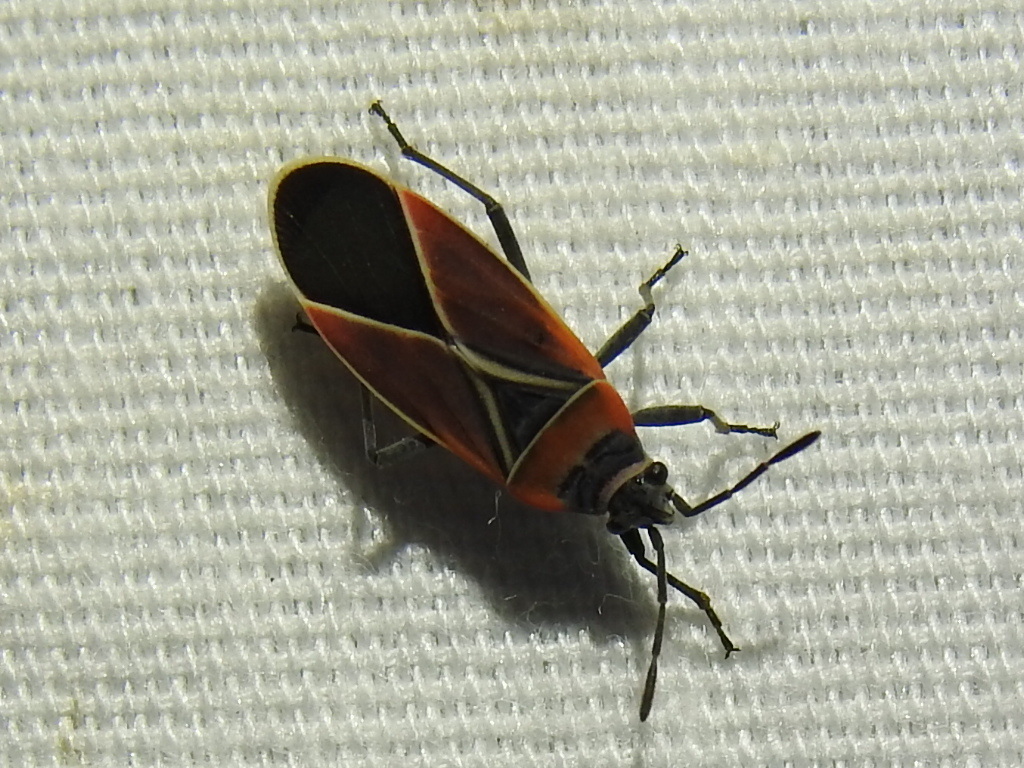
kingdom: Animalia
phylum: Arthropoda
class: Insecta
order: Hemiptera
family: Lygaeidae
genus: Neacoryphus
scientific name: Neacoryphus bicrucis
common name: Lygaeid bug
